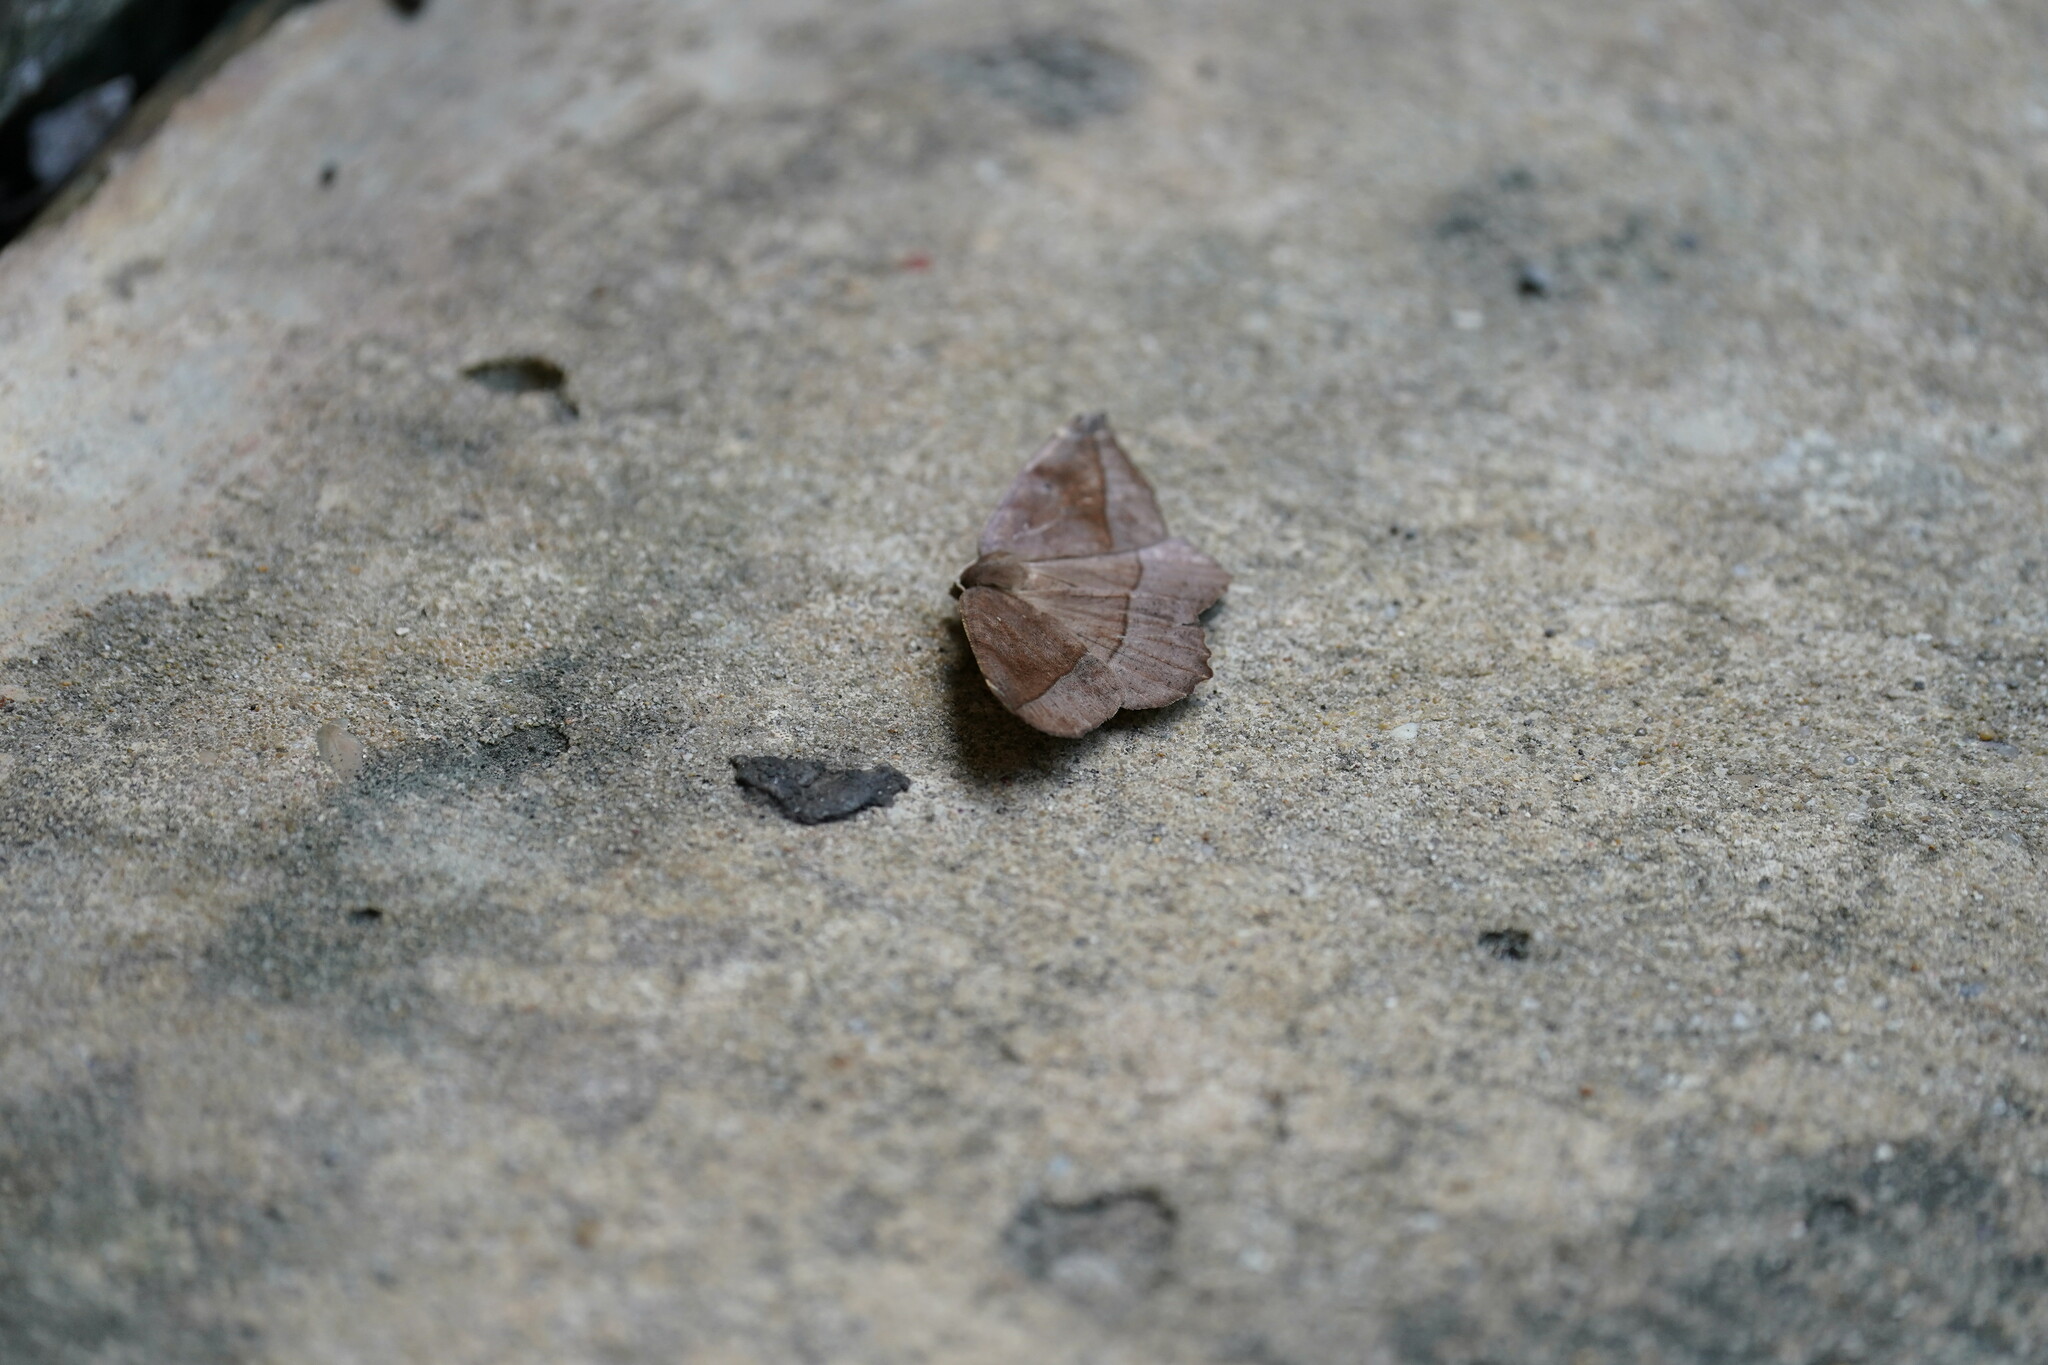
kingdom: Animalia
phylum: Arthropoda
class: Insecta
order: Lepidoptera
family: Geometridae
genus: Eutrapela
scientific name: Eutrapela clemataria
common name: Curved-toothed geometer
